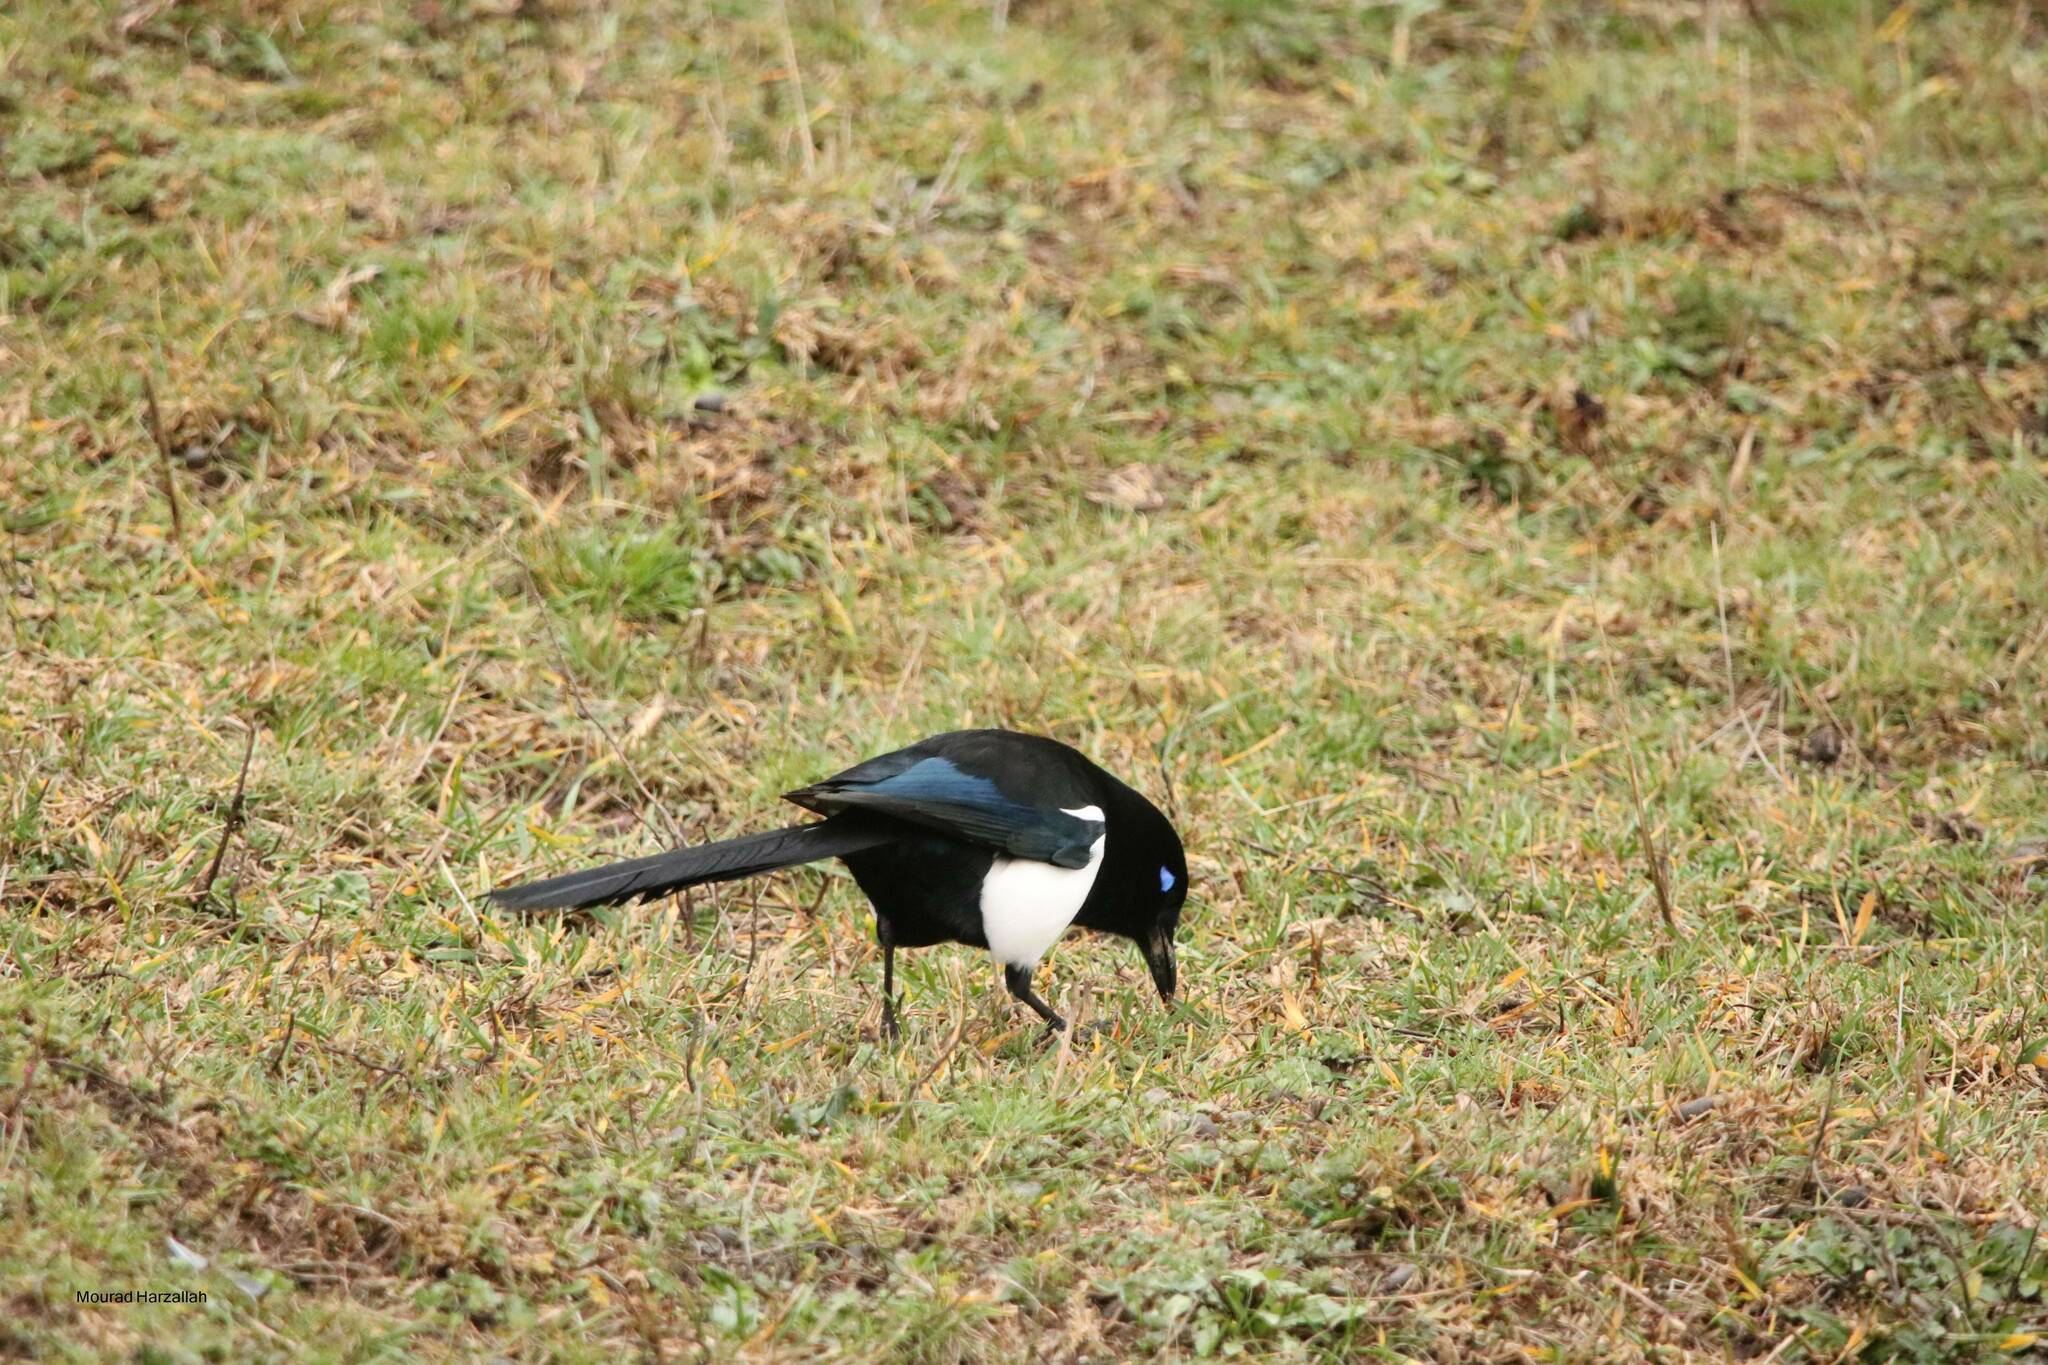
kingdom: Animalia
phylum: Chordata
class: Aves
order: Passeriformes
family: Corvidae
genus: Pica
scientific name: Pica mauritanica
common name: Maghreb magpie
